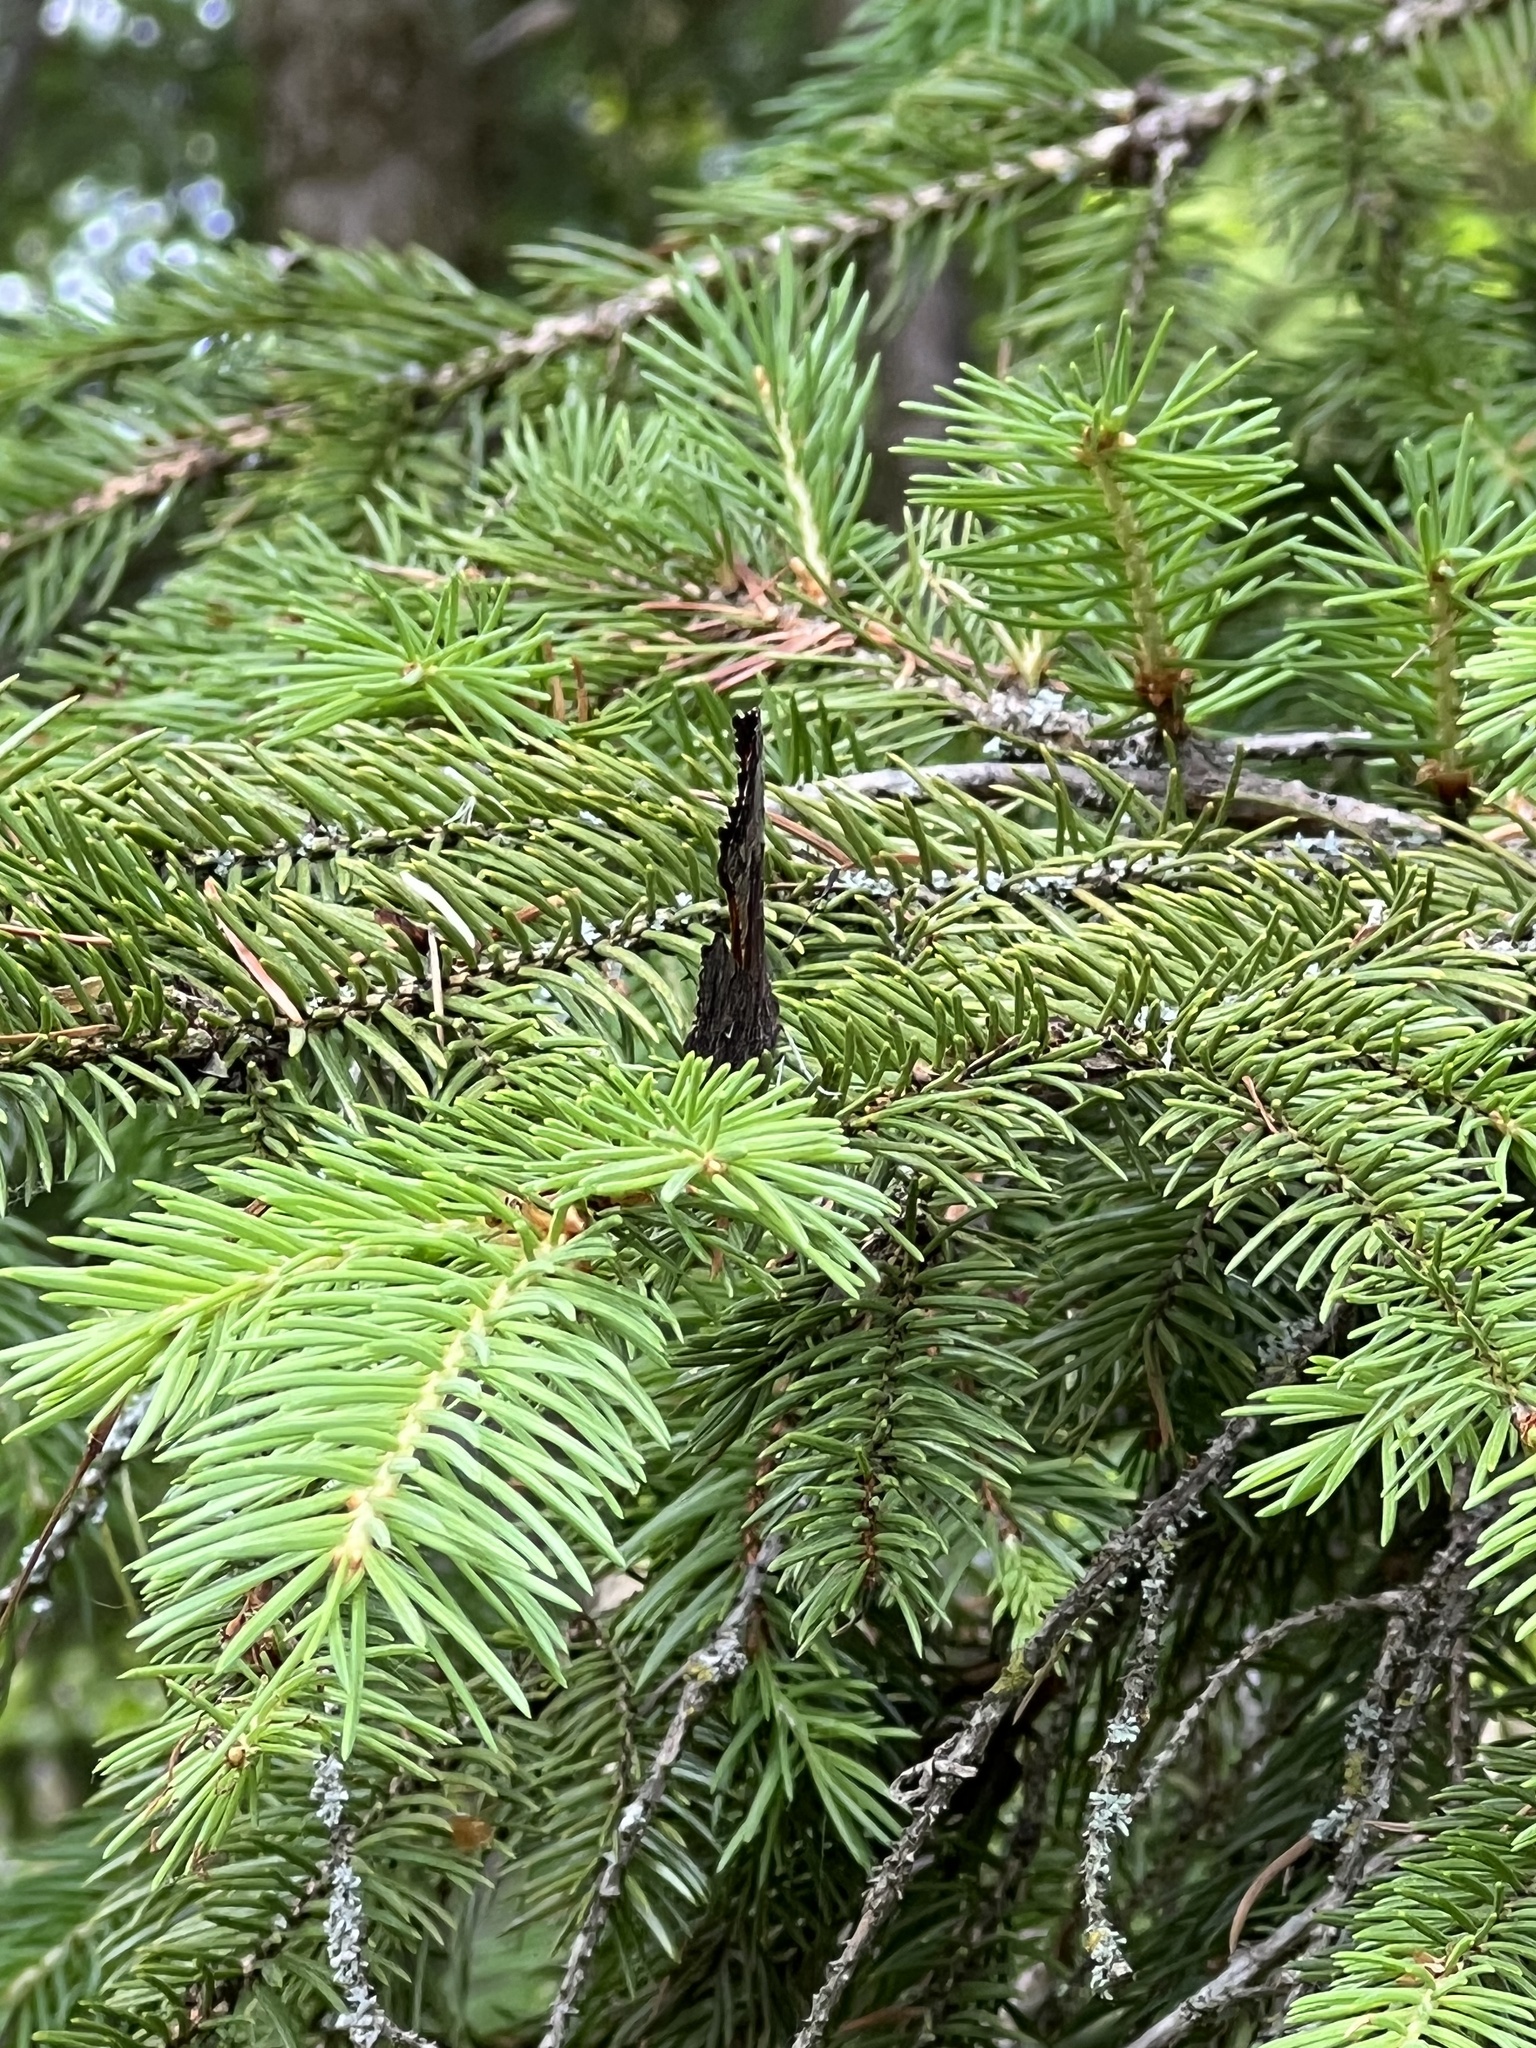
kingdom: Animalia
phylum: Arthropoda
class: Insecta
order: Lepidoptera
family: Nymphalidae
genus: Polygonia
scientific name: Polygonia progne
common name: Gray comma
